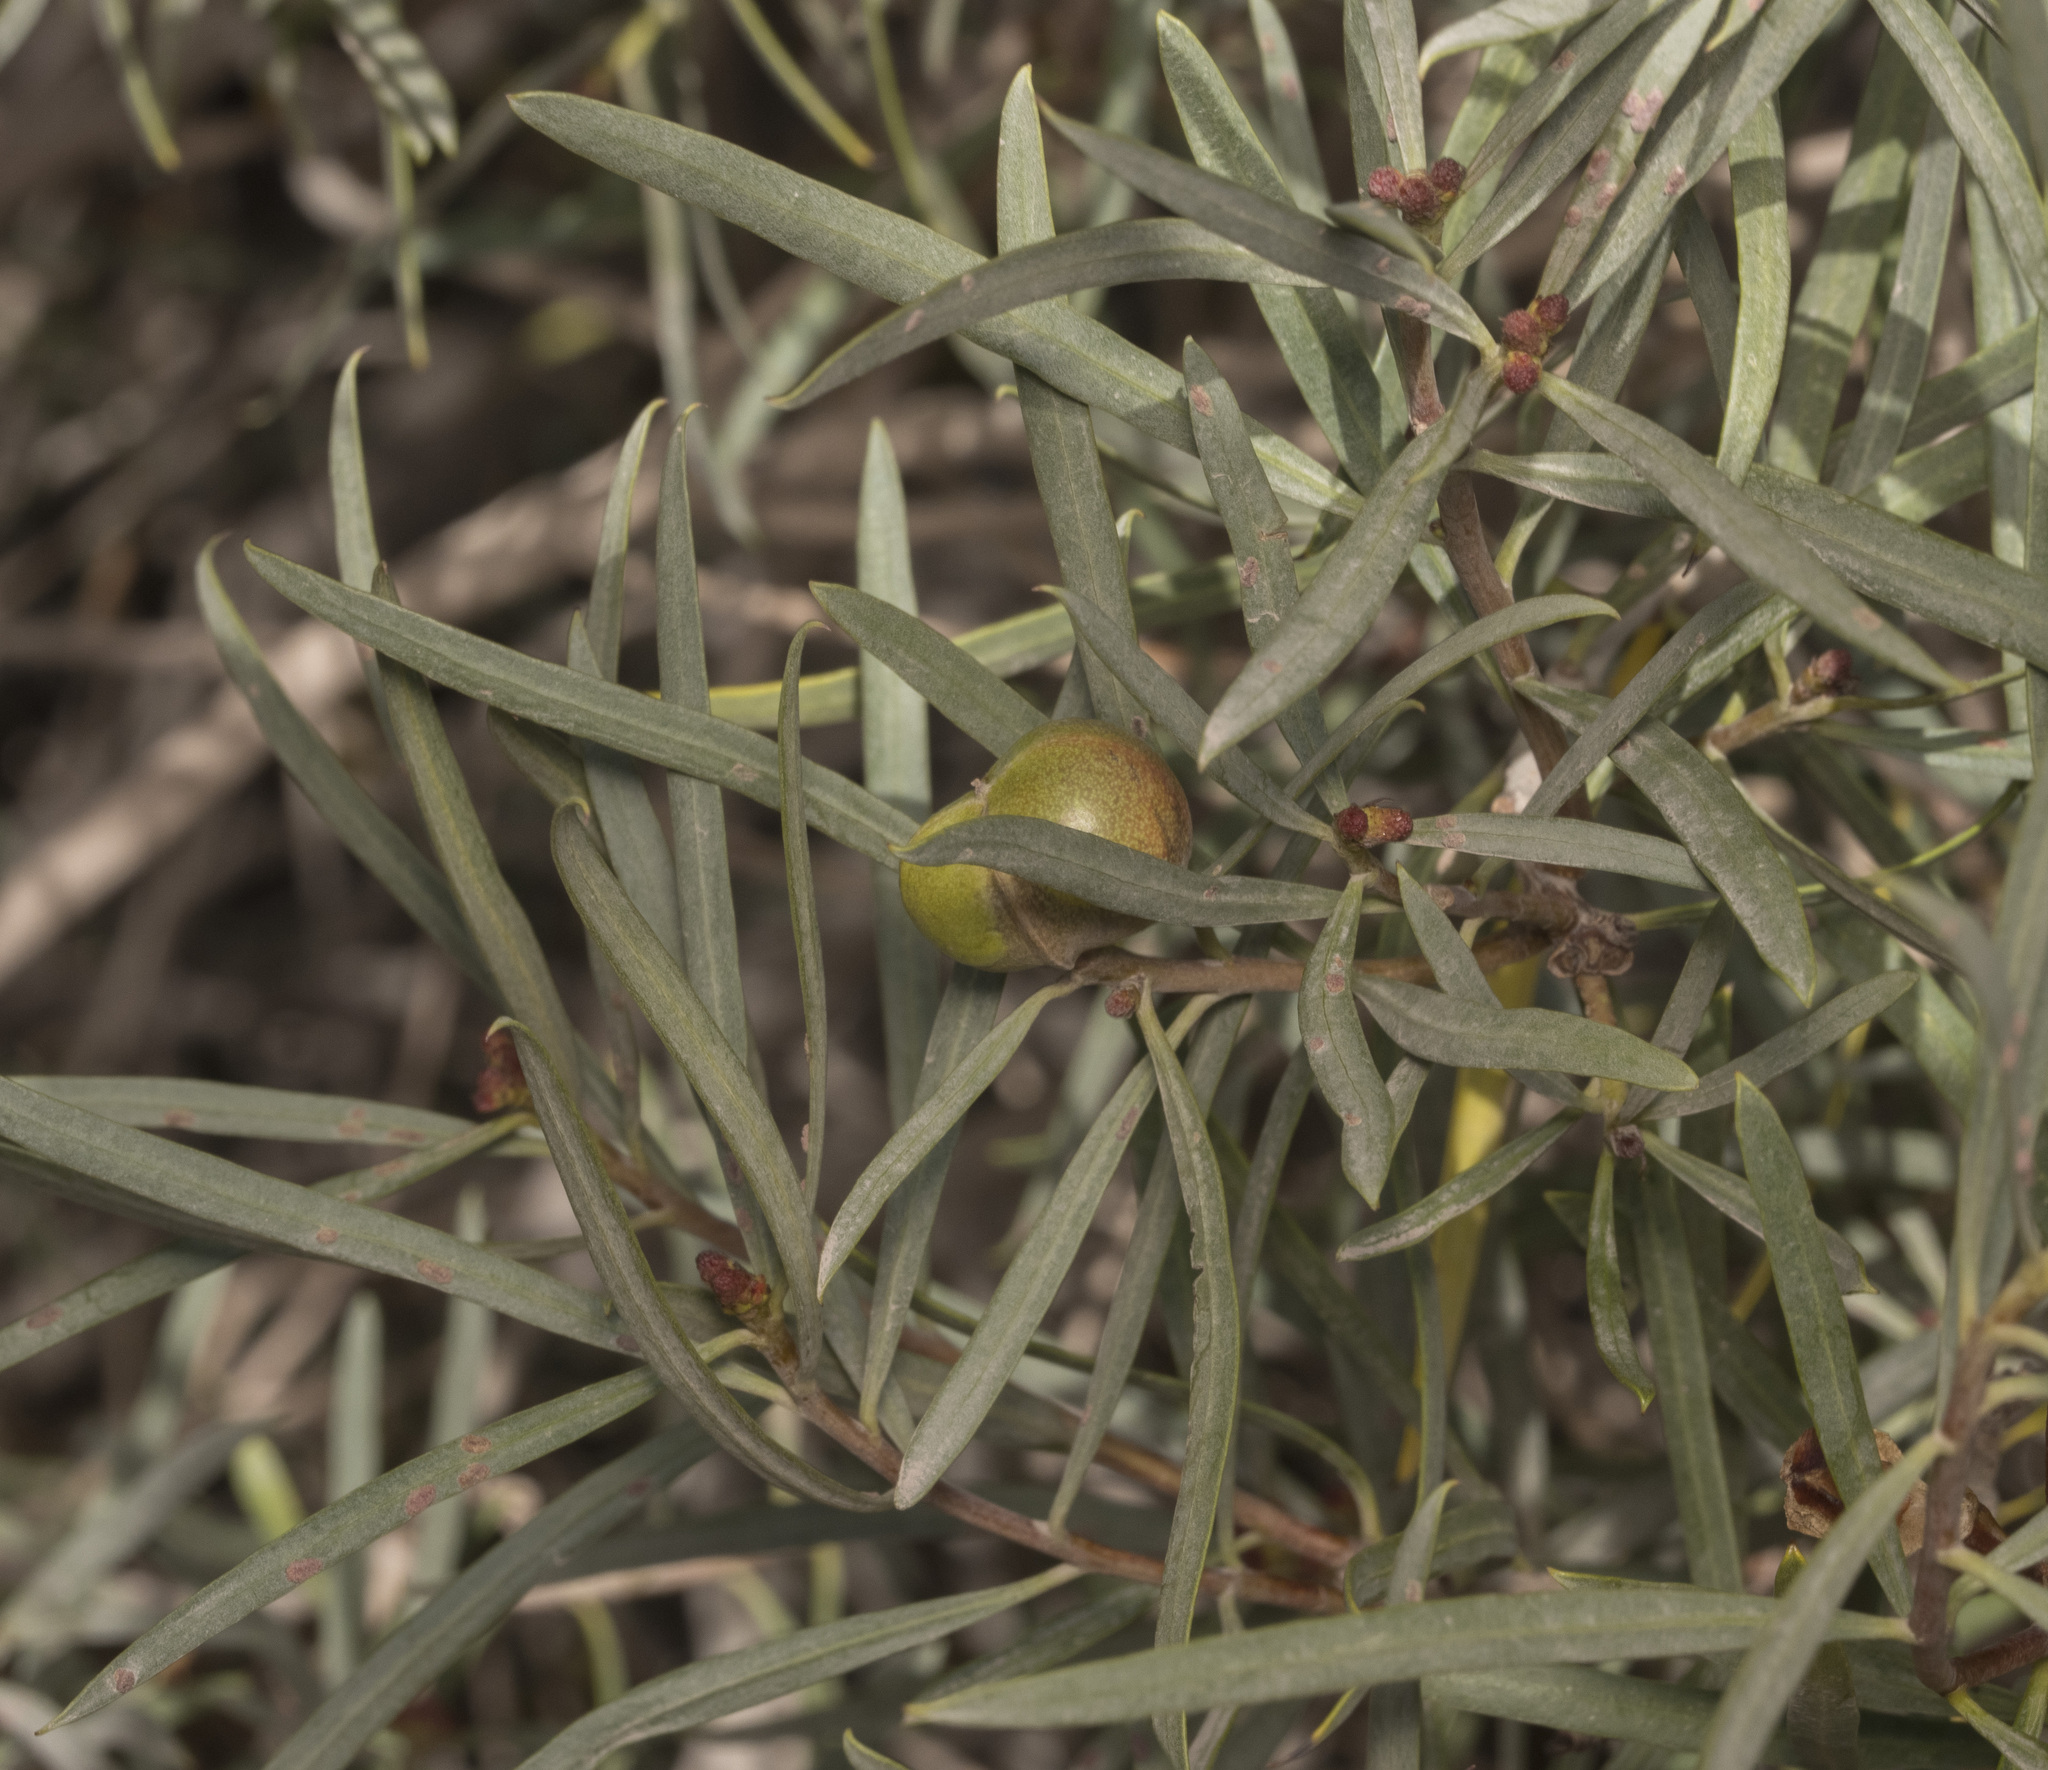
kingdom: Plantae
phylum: Tracheophyta
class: Magnoliopsida
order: Malpighiales
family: Euphorbiaceae
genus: Colliguaja
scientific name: Colliguaja integerrima
